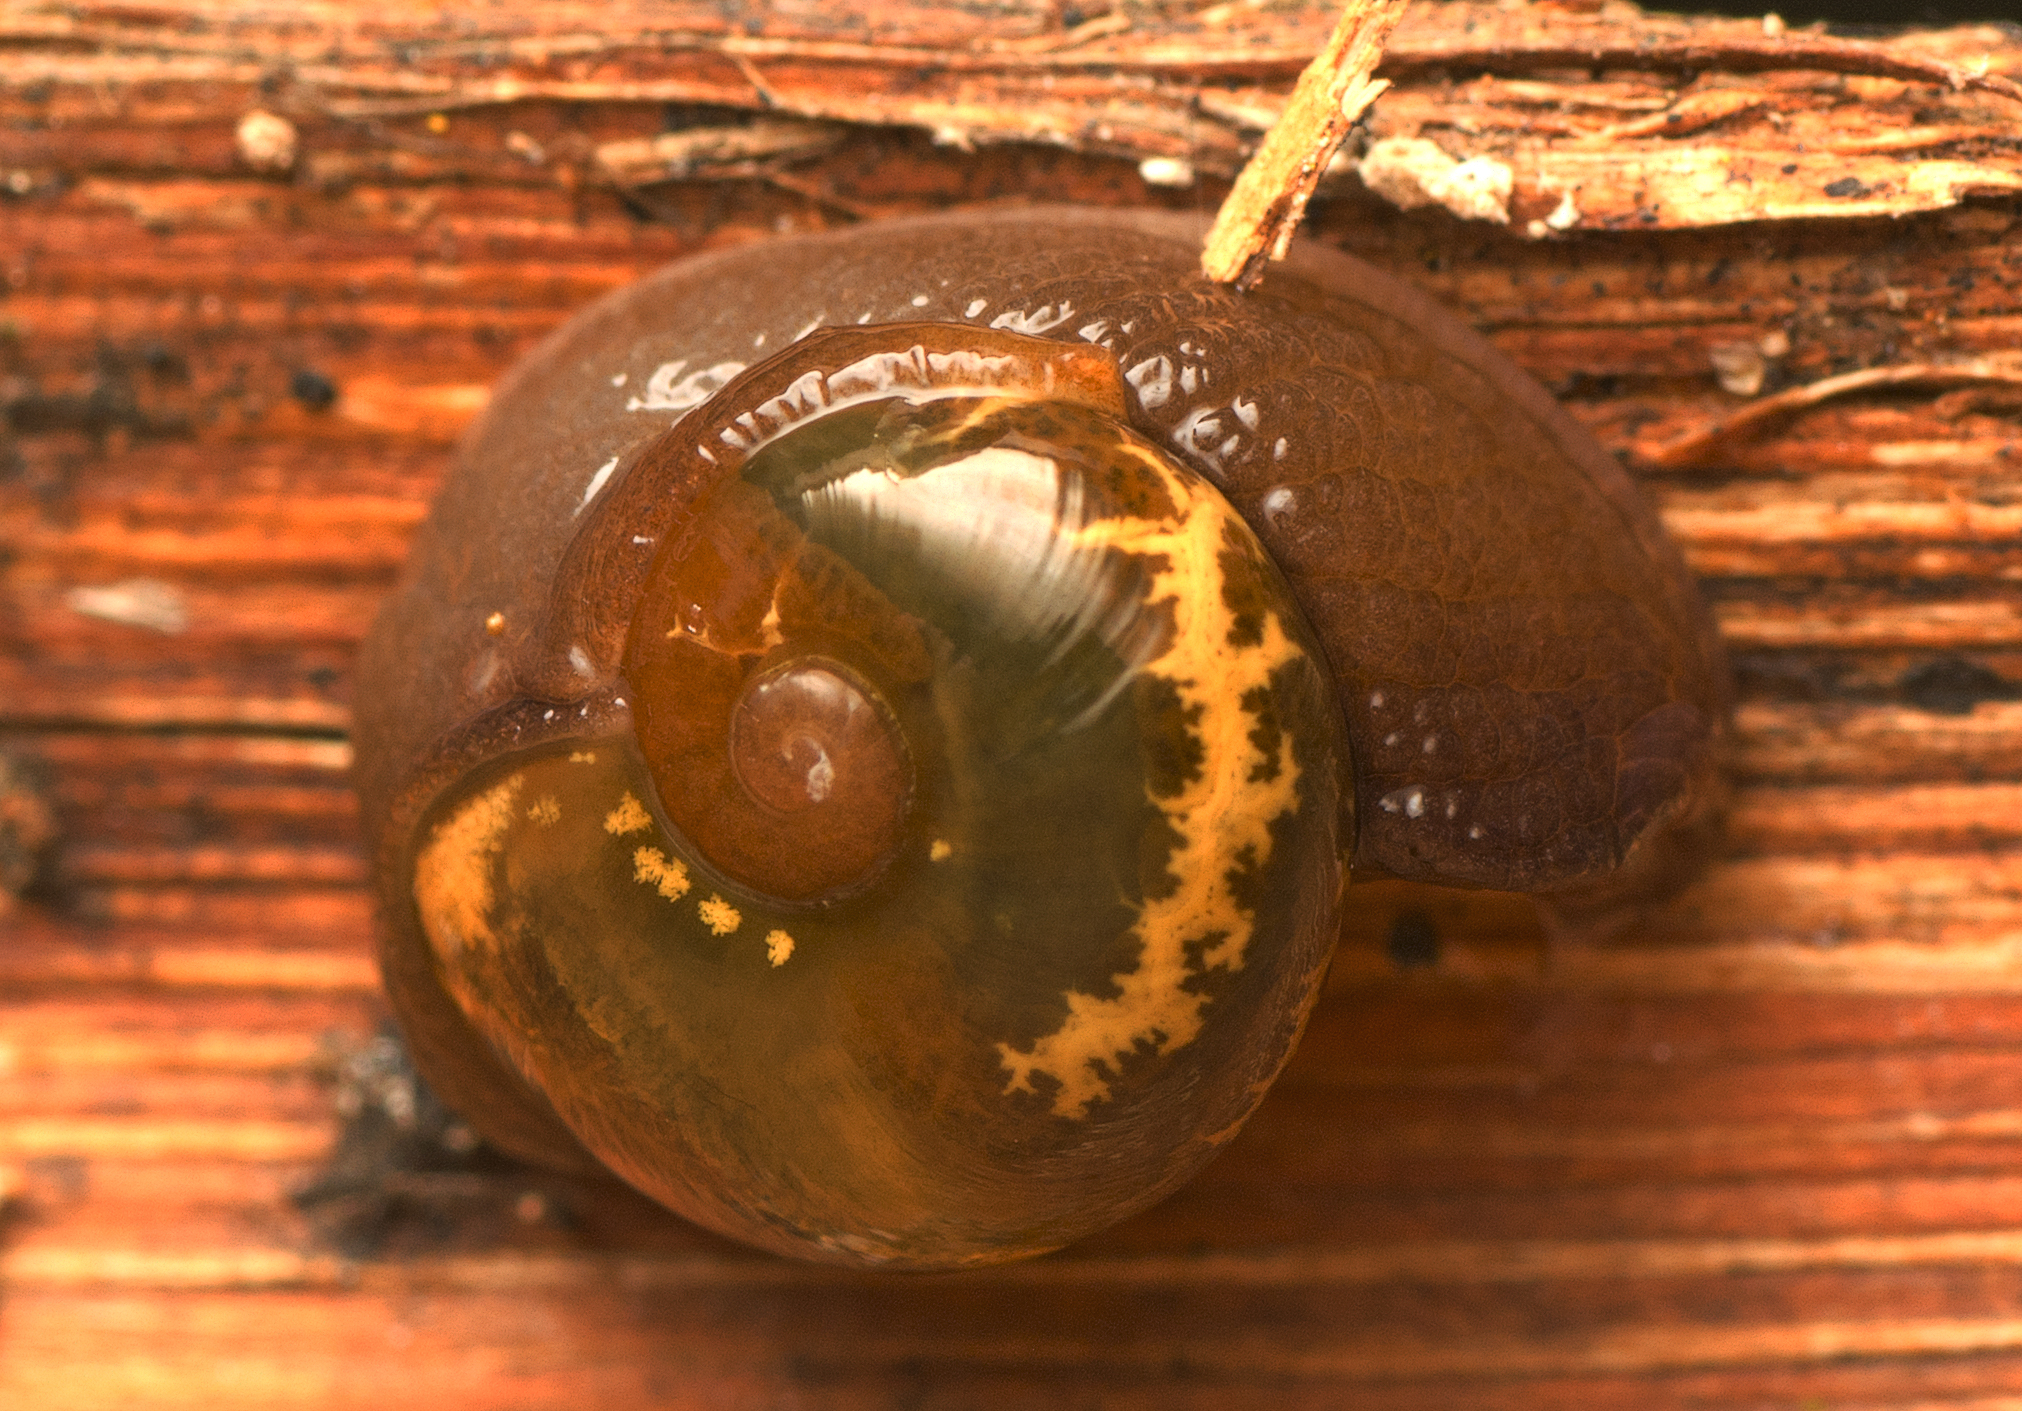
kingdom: Animalia
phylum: Mollusca
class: Gastropoda
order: Stylommatophora
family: Helicarionidae
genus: Helicarion
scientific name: Helicarion cuvieri
